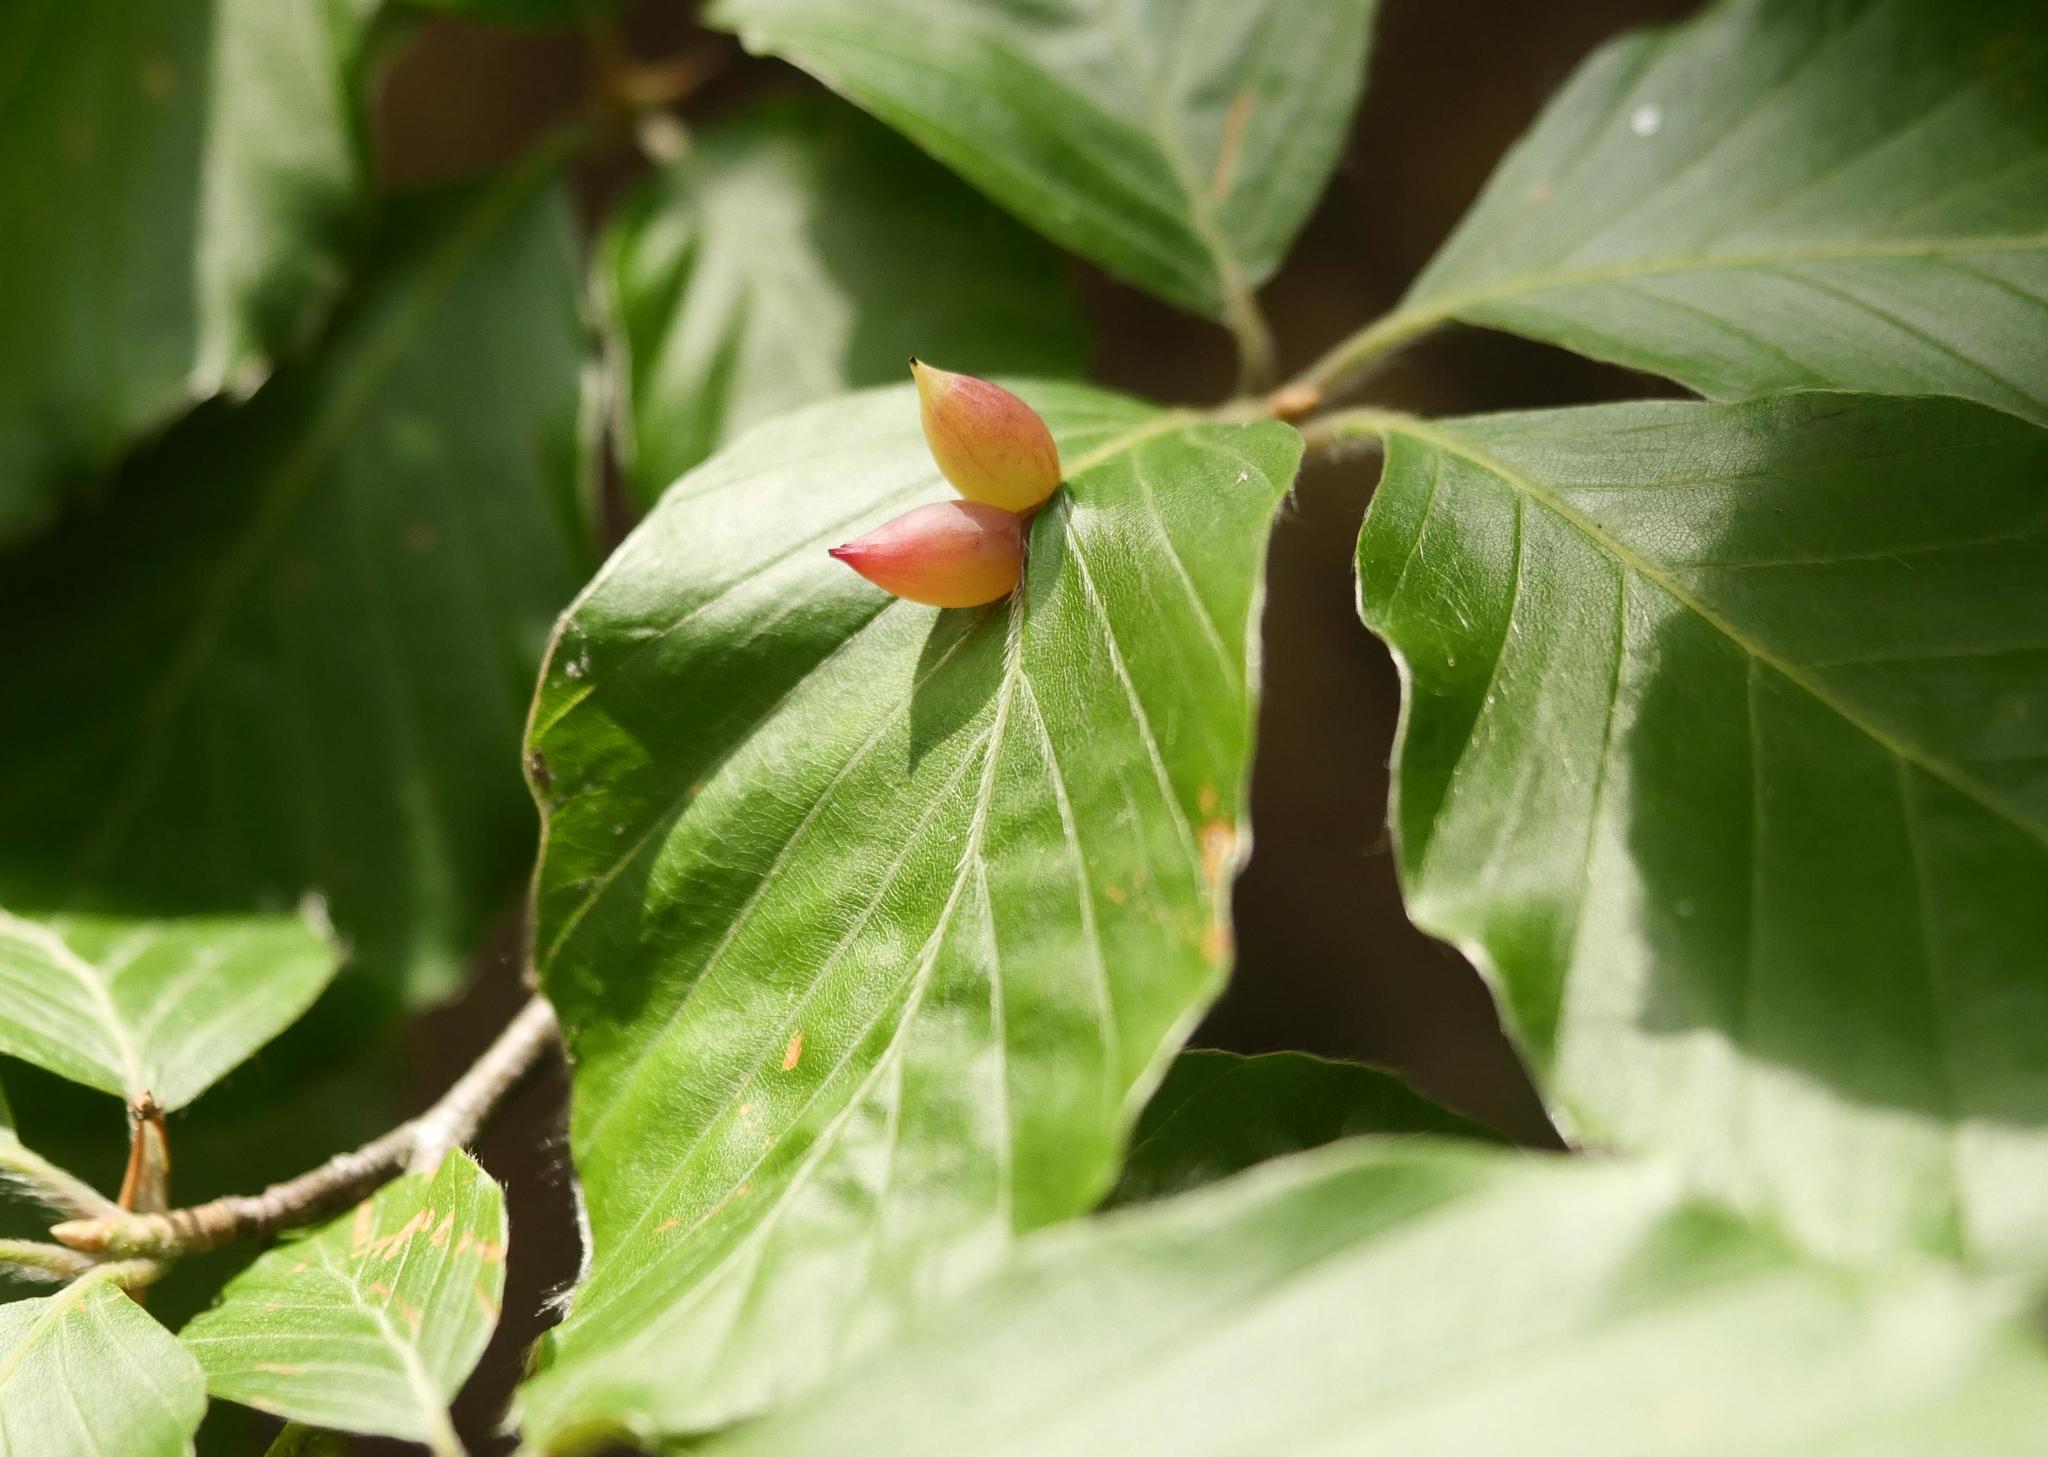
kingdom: Animalia
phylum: Arthropoda
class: Insecta
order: Diptera
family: Cecidomyiidae
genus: Mikiola
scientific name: Mikiola fagi
